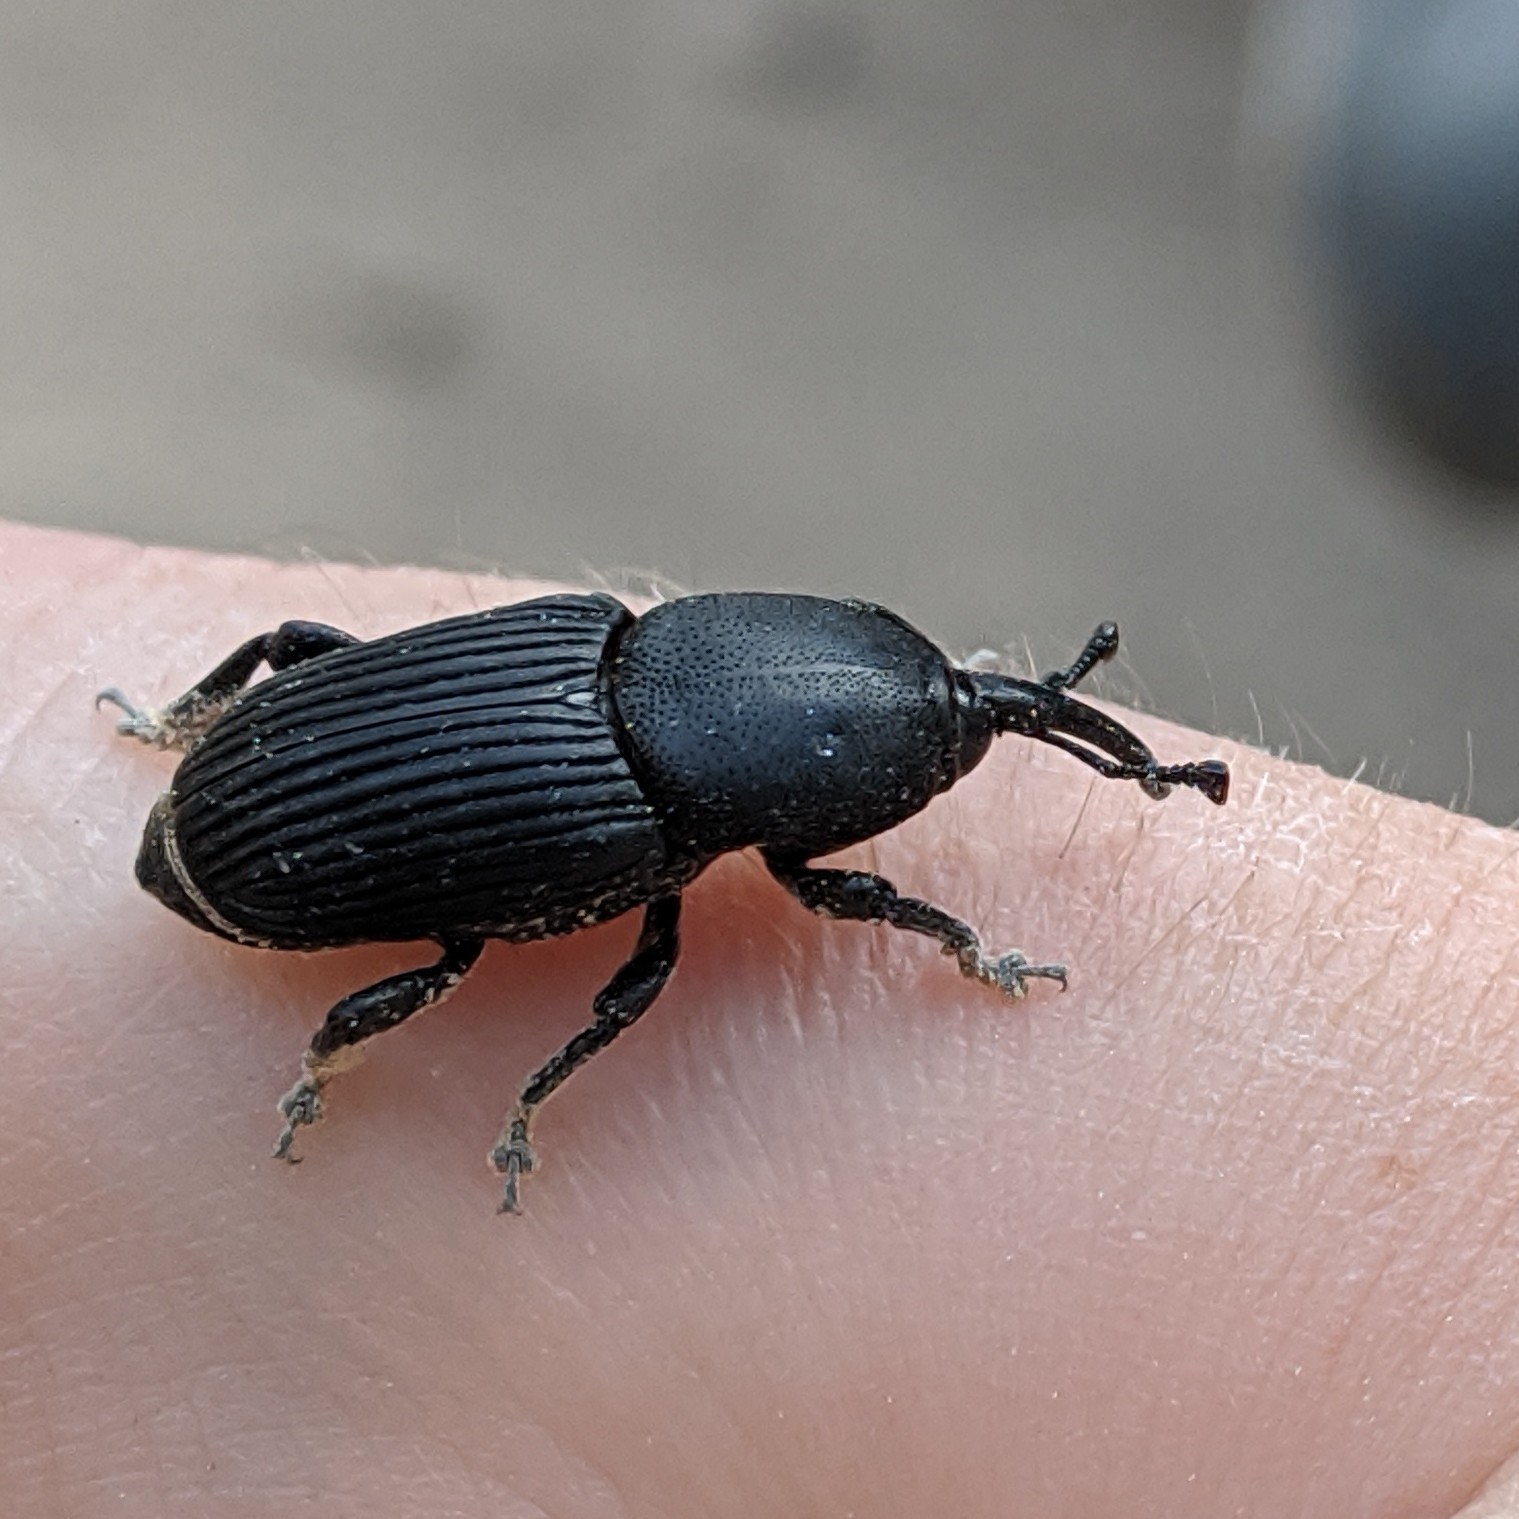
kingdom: Animalia
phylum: Arthropoda
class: Insecta
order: Coleoptera
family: Dryophthoridae
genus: Scyphophorus
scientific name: Scyphophorus acupunctatus
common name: Weevil
